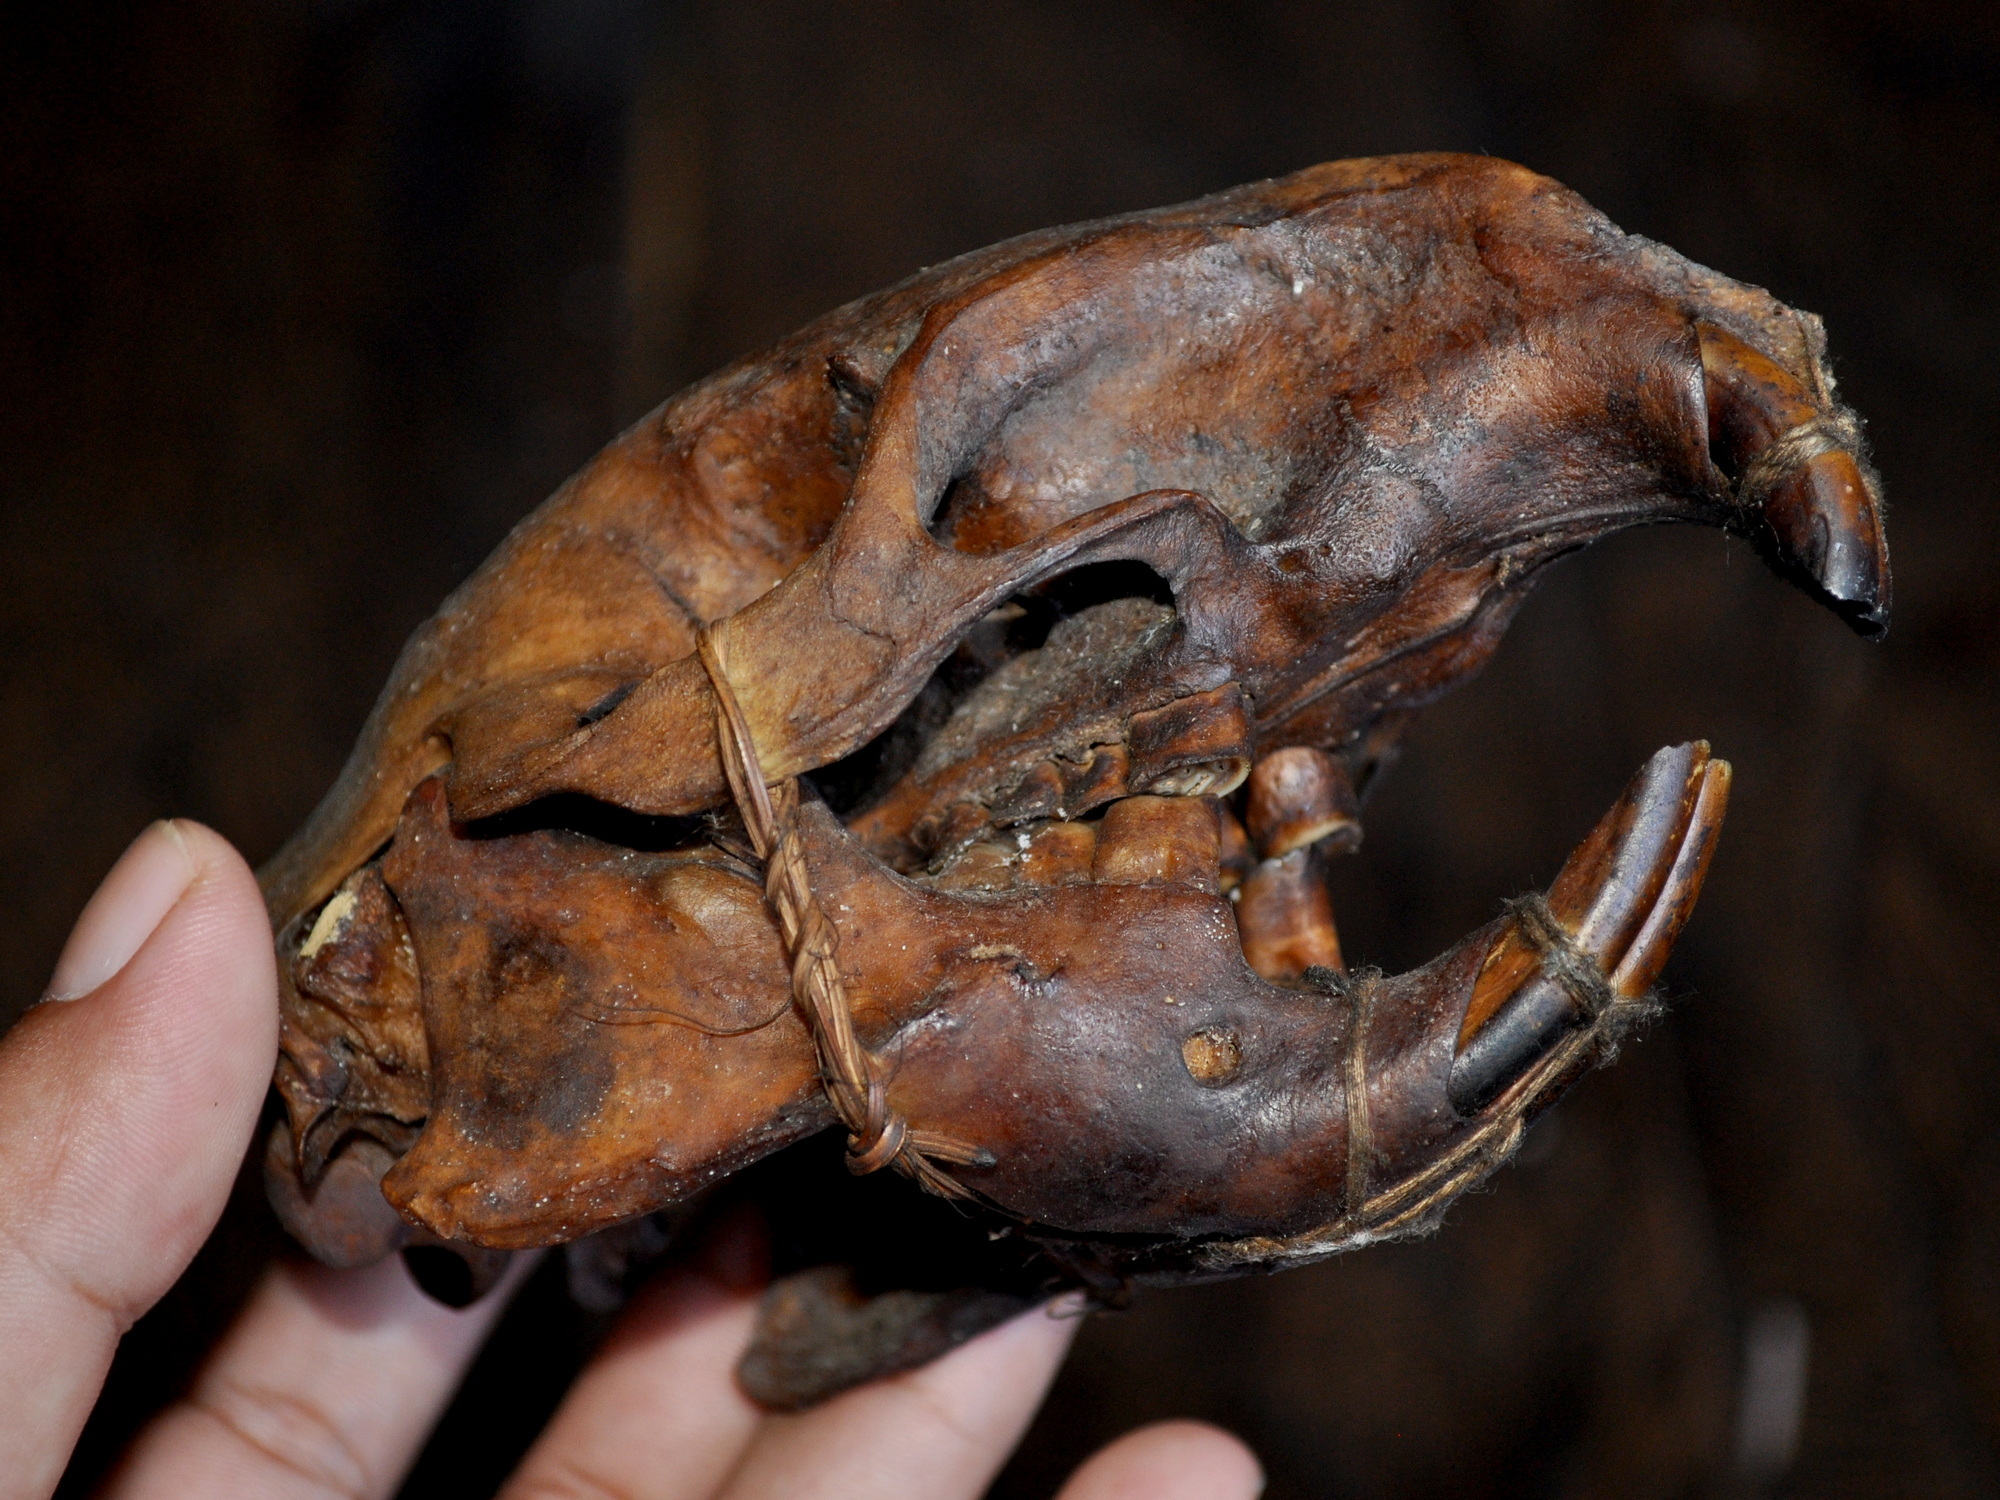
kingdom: Animalia
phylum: Chordata
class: Mammalia
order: Rodentia
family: Hystricidae
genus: Hystrix
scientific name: Hystrix brachyura
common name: Malayan porcupine
